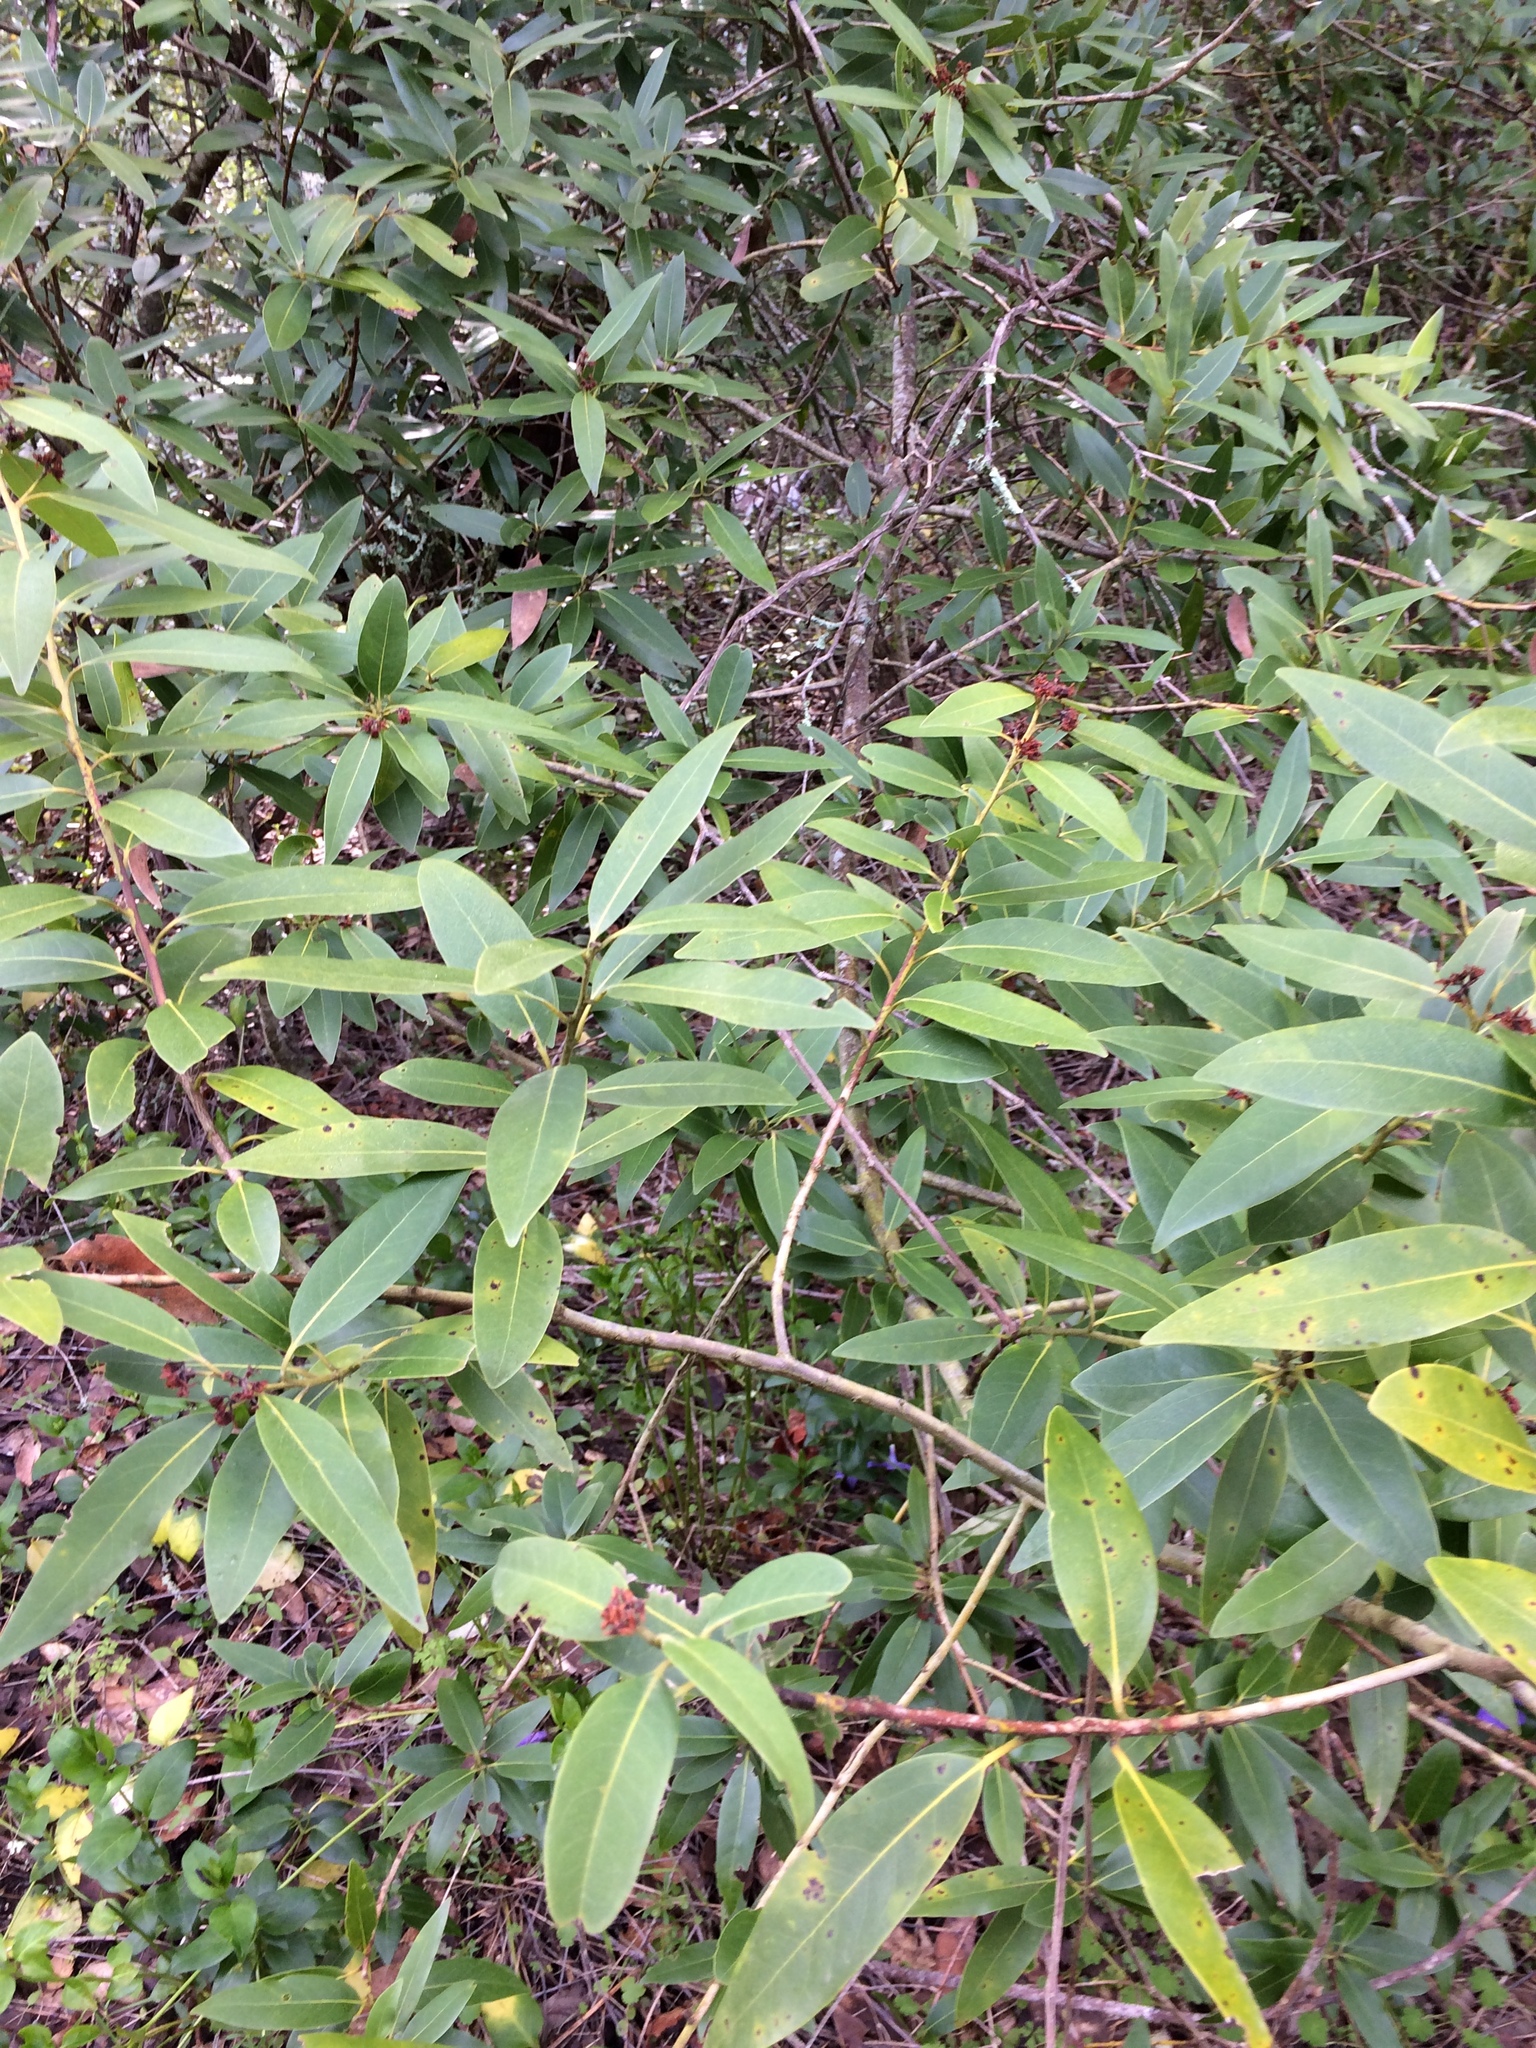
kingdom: Plantae
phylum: Tracheophyta
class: Magnoliopsida
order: Laurales
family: Lauraceae
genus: Umbellularia
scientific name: Umbellularia californica
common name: California bay
